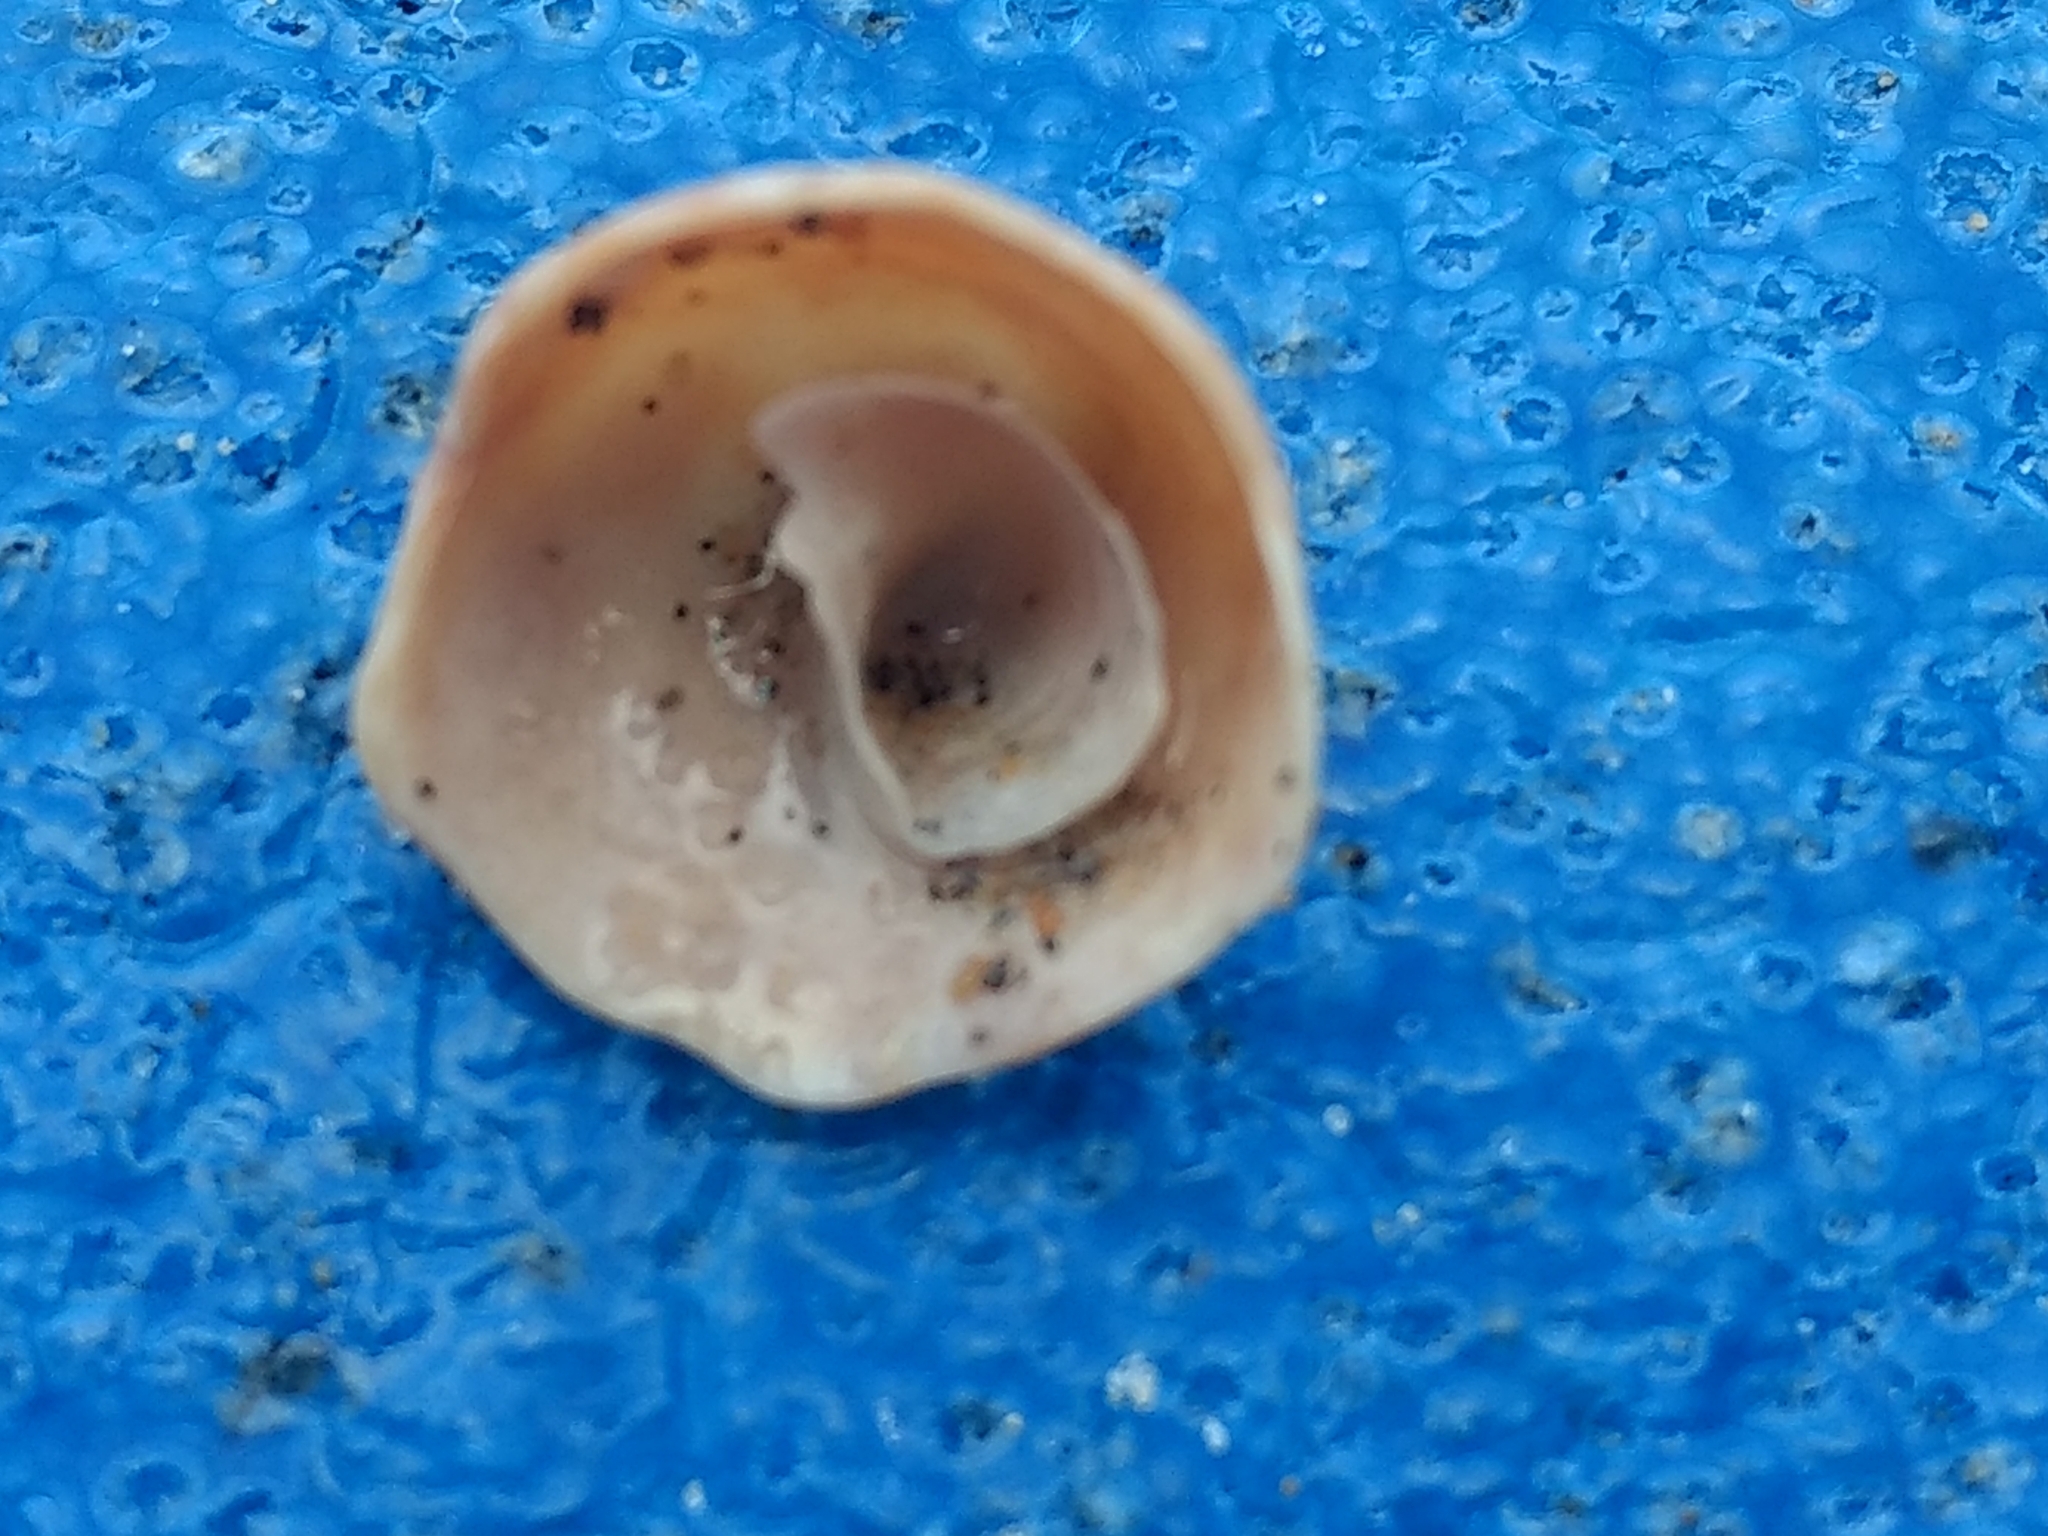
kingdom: Animalia
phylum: Mollusca
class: Gastropoda
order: Littorinimorpha
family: Calyptraeidae
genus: Crucibulum
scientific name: Crucibulum spinosum
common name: Spiny cup-and-saucer
